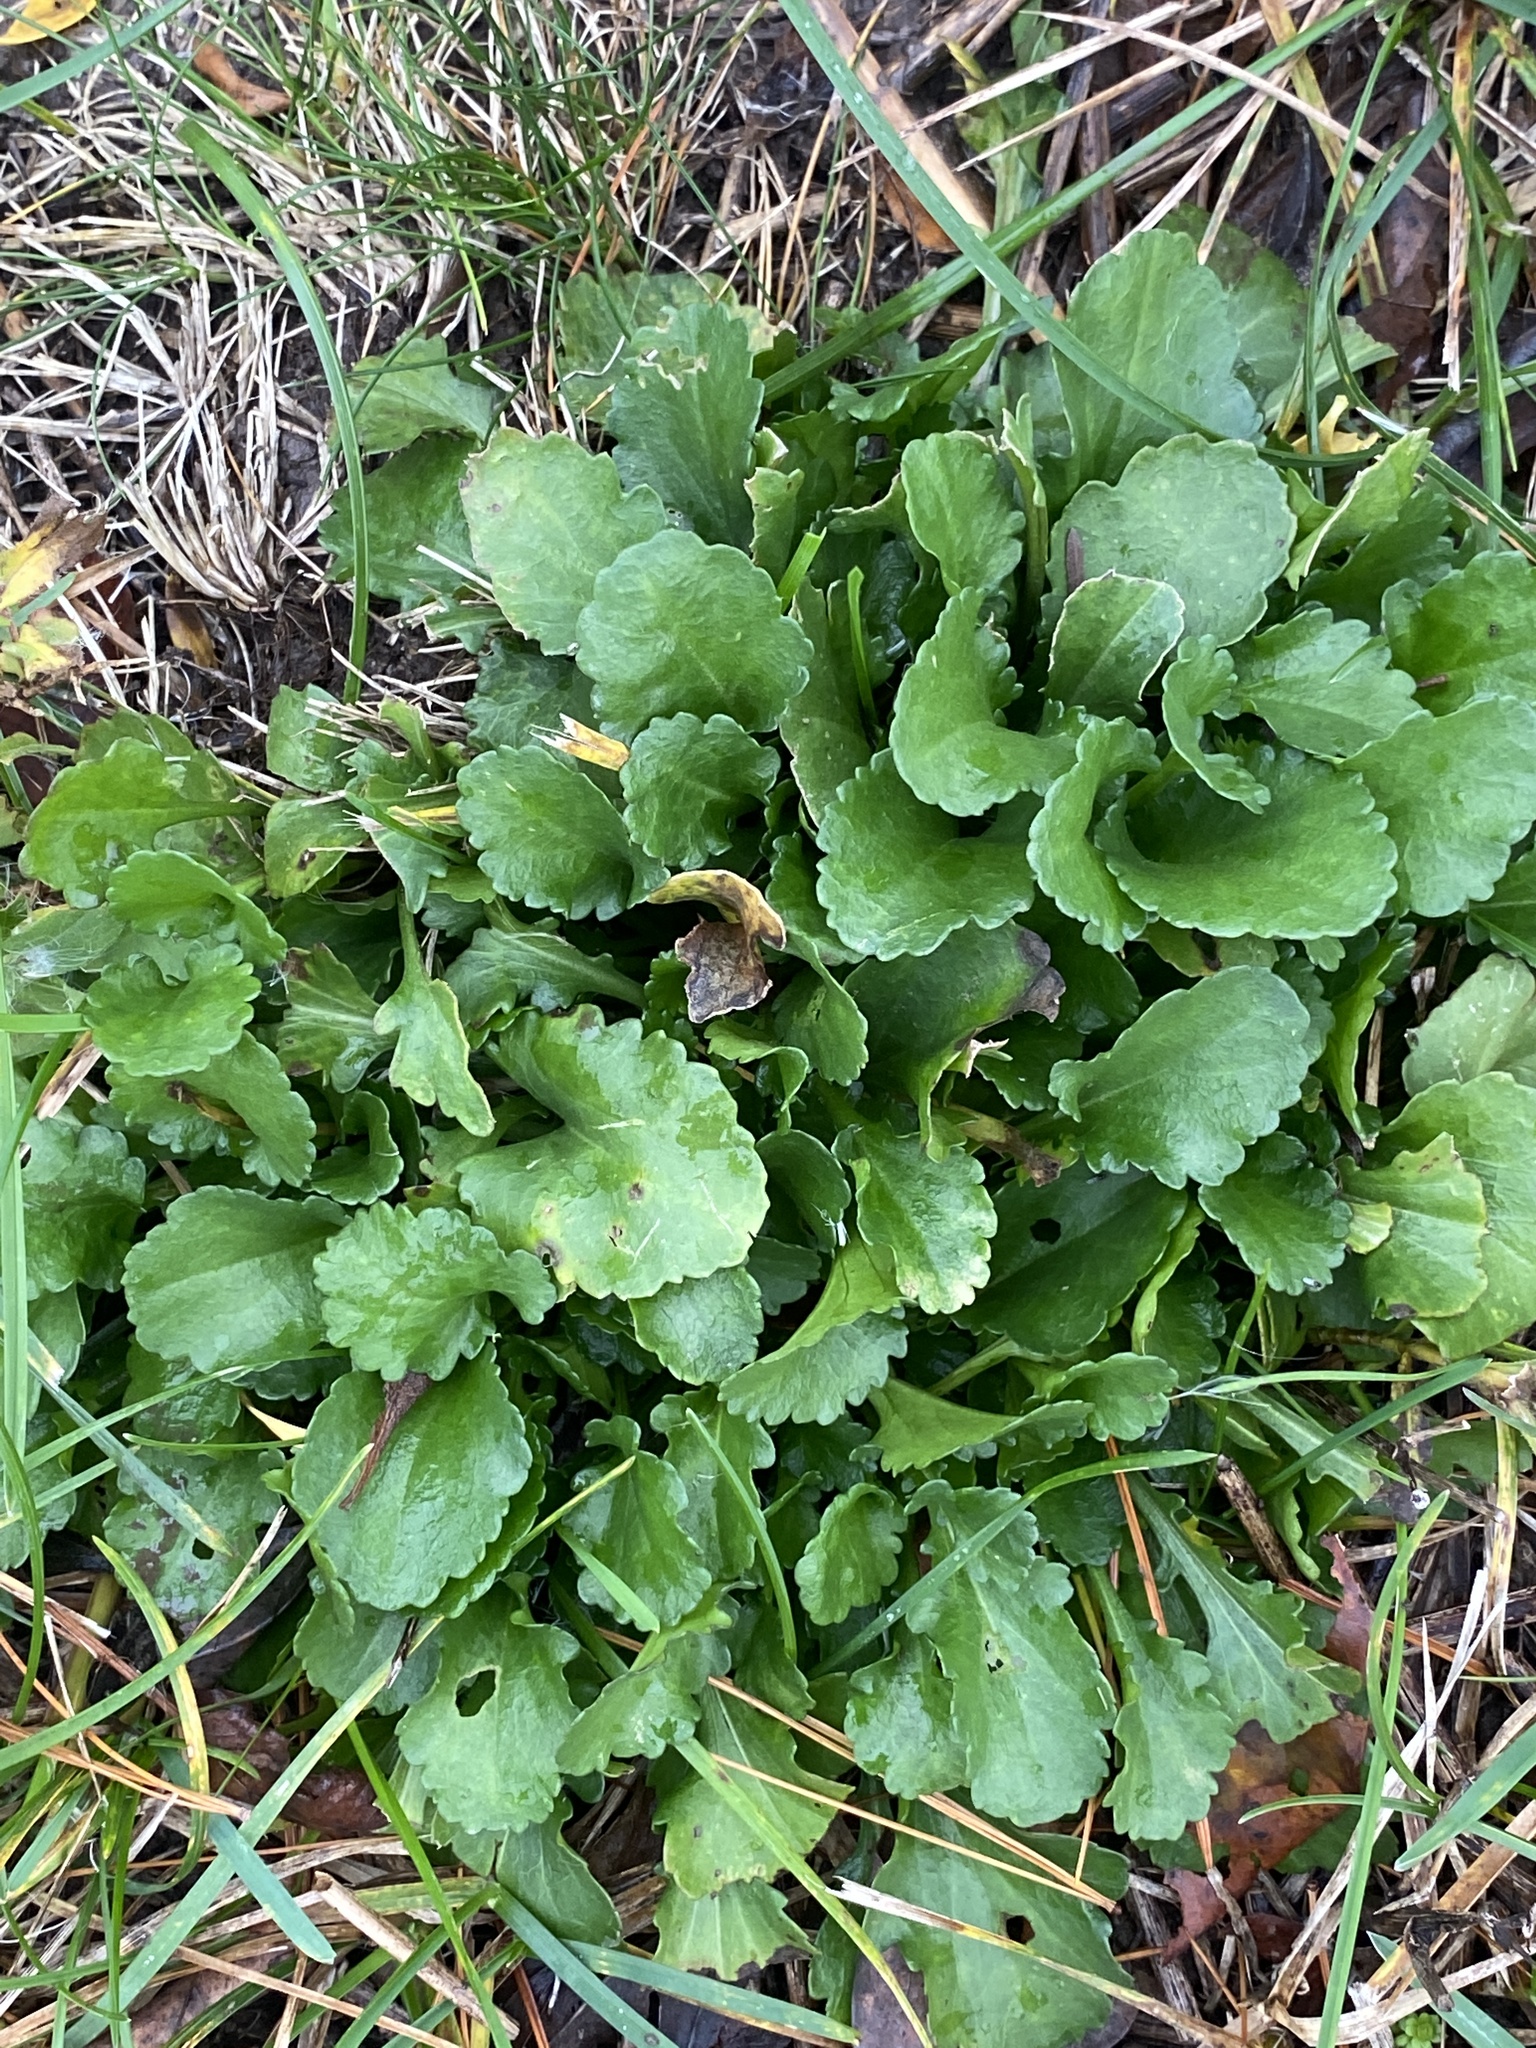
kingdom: Plantae
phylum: Tracheophyta
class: Magnoliopsida
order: Asterales
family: Asteraceae
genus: Leucanthemum
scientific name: Leucanthemum vulgare
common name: Oxeye daisy
